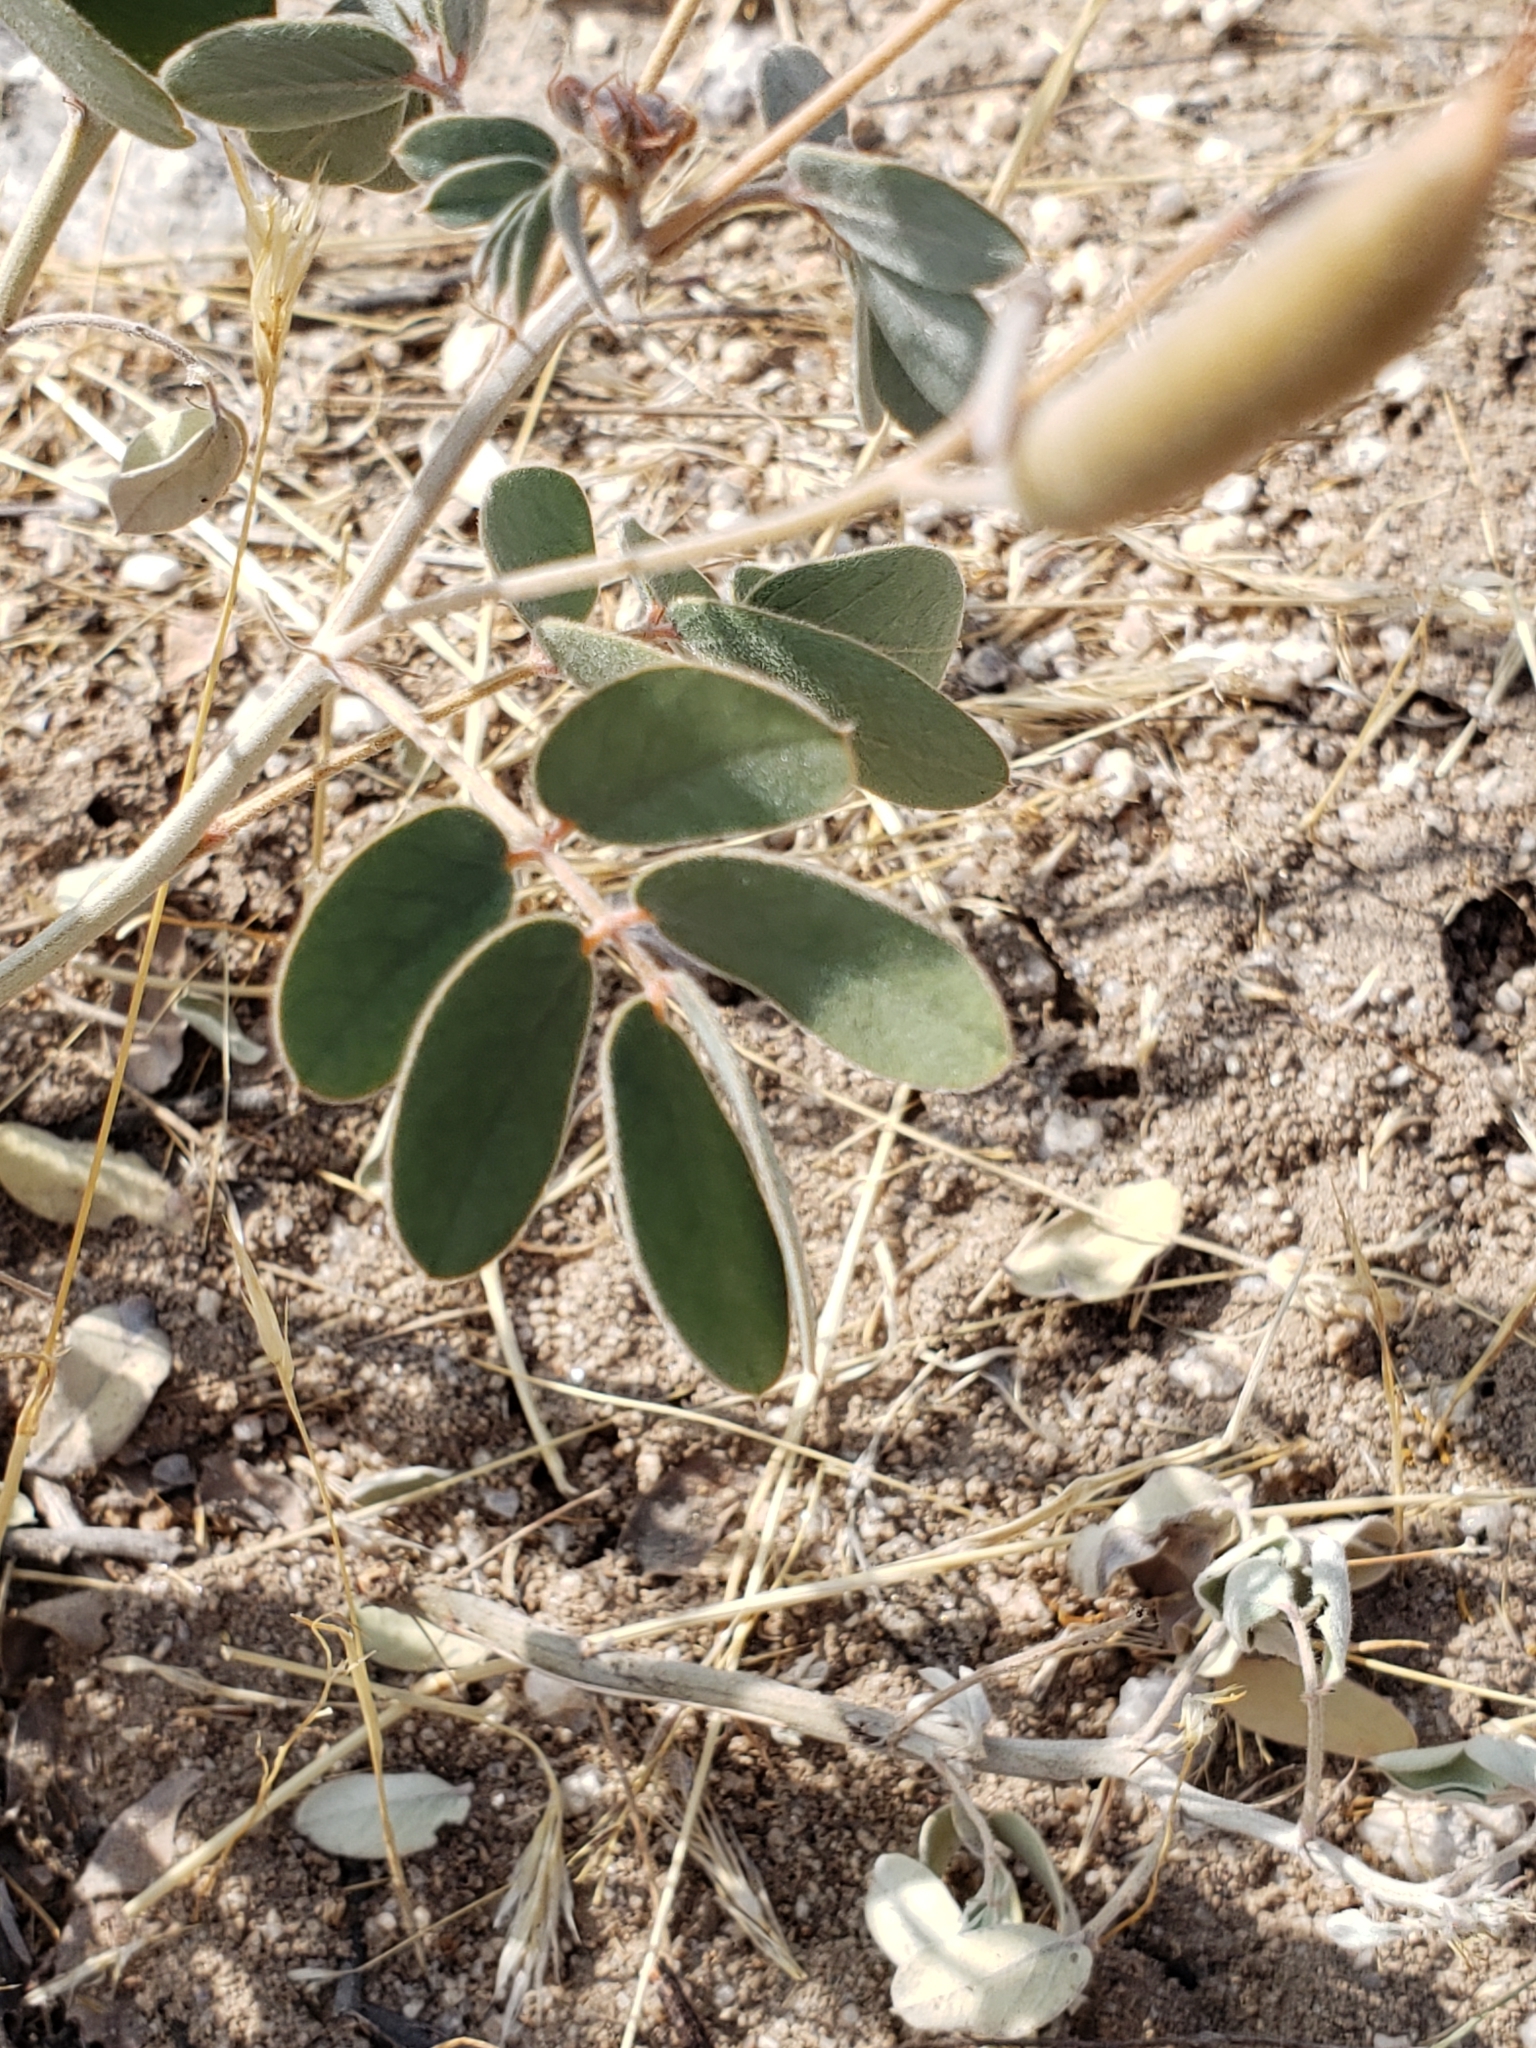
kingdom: Plantae
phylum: Tracheophyta
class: Magnoliopsida
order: Fabales
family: Fabaceae
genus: Senna
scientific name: Senna covesii
